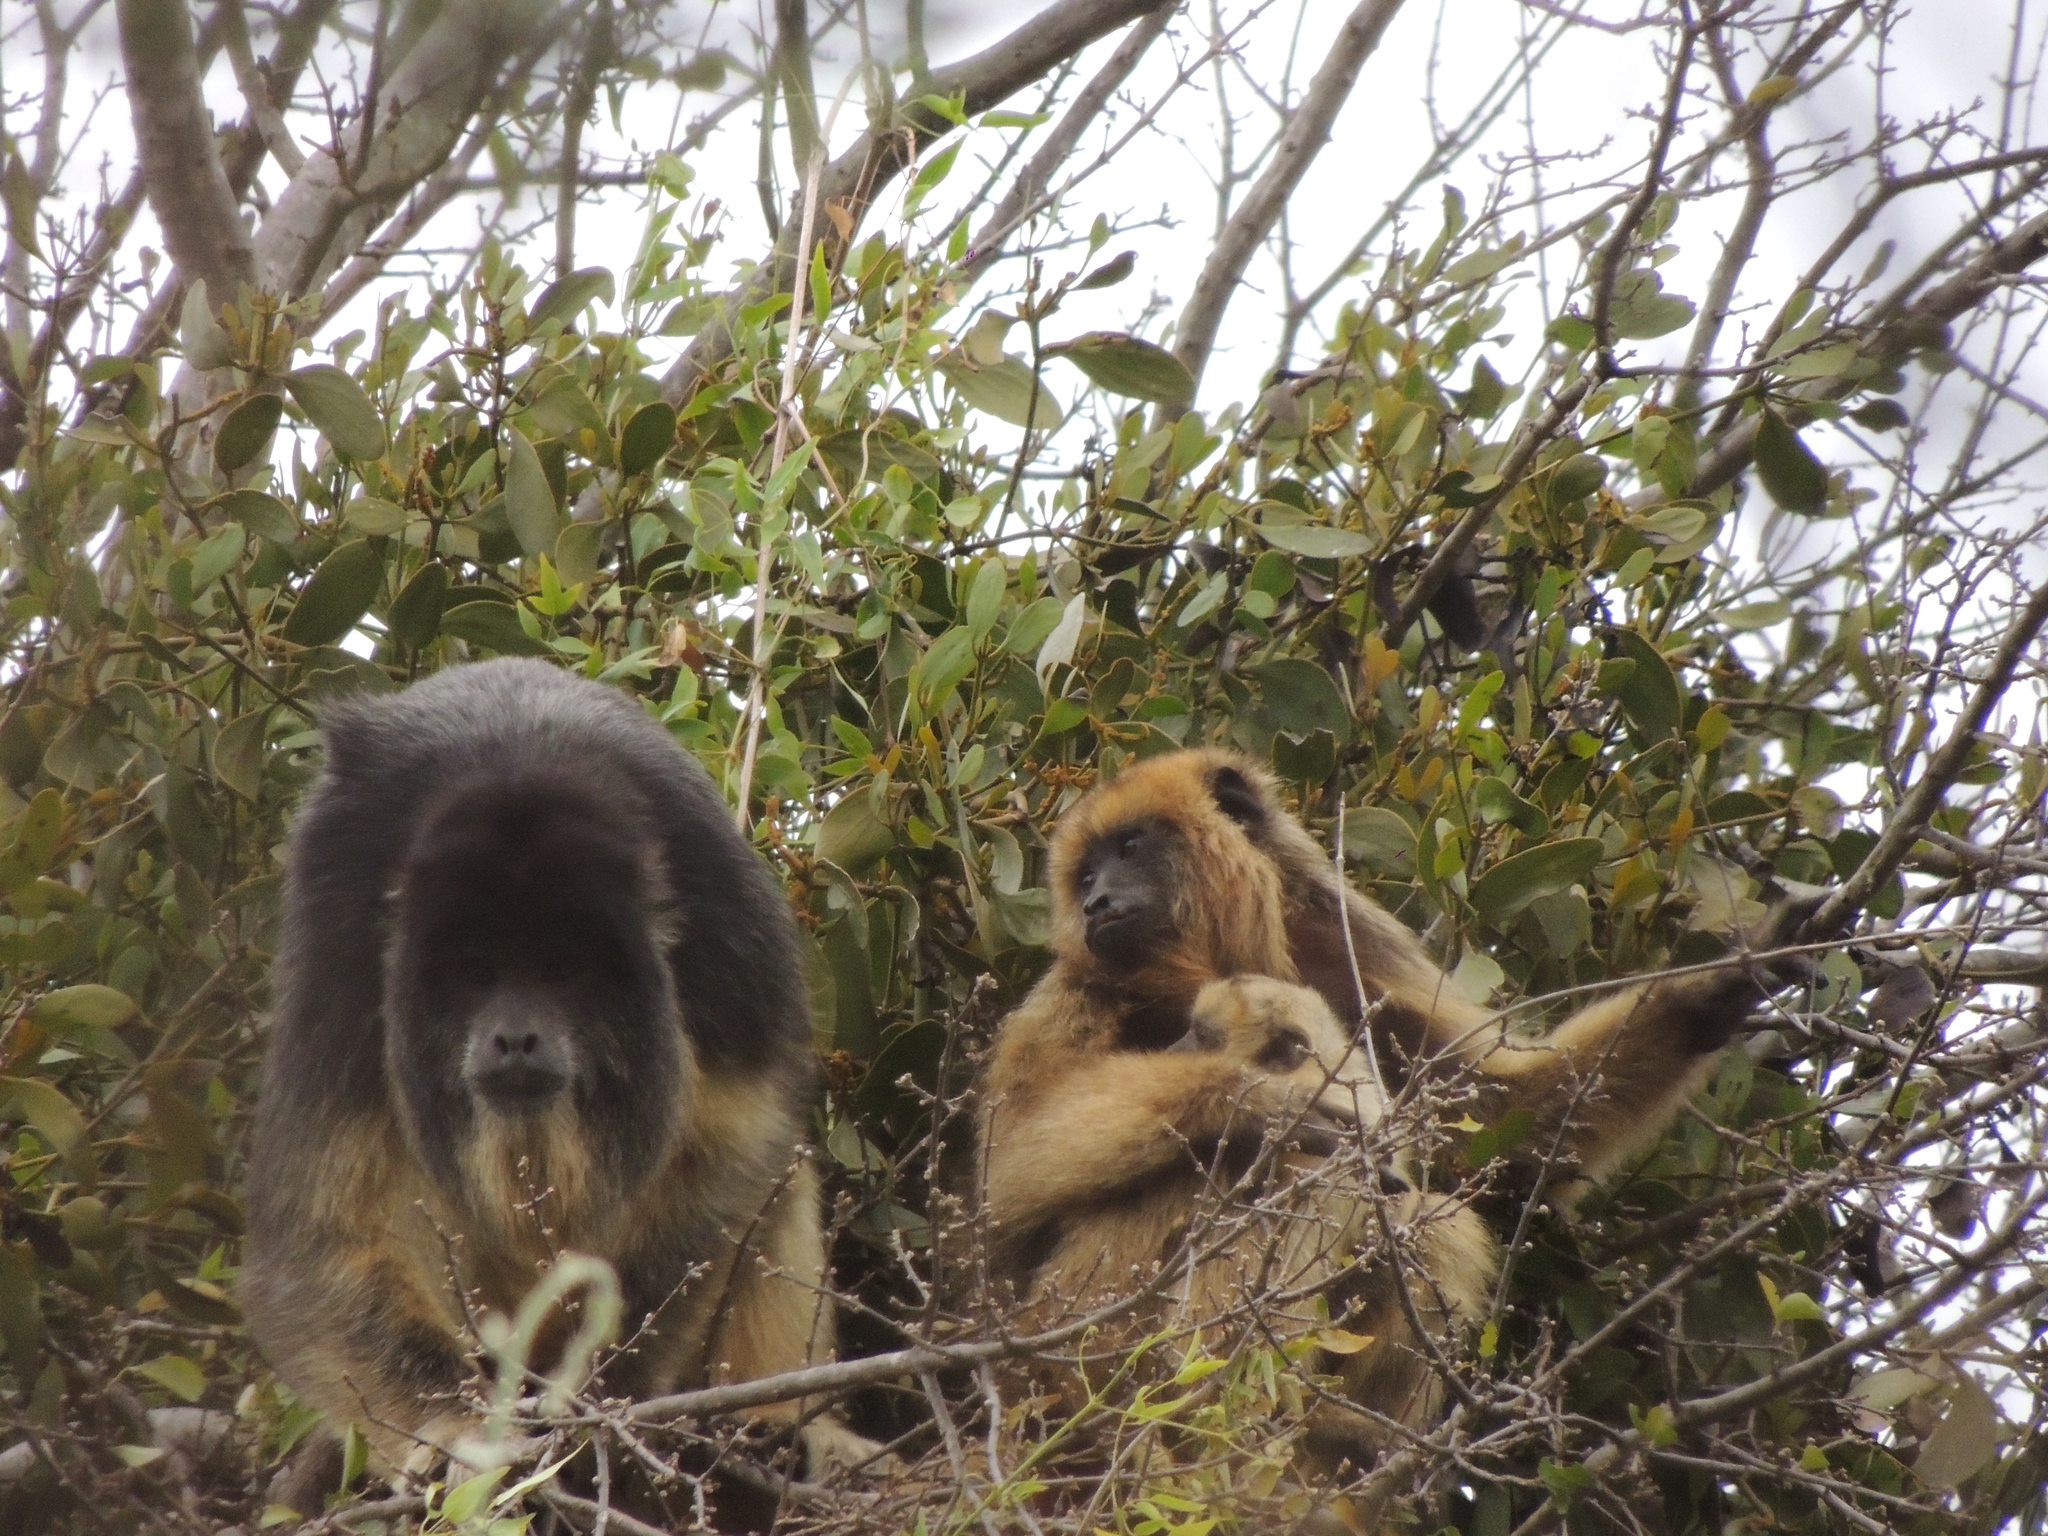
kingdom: Animalia
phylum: Chordata
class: Mammalia
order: Primates
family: Atelidae
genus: Alouatta
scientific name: Alouatta caraya
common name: Black howler
